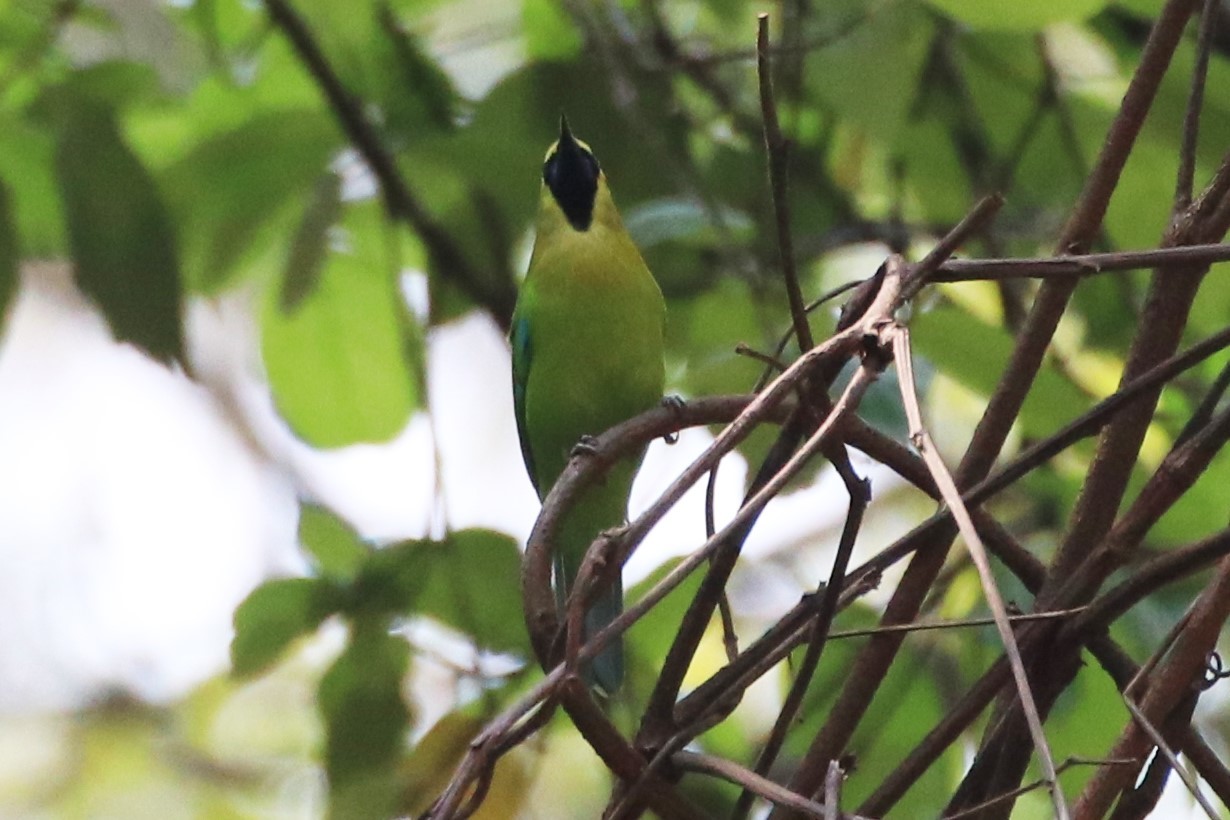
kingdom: Animalia
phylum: Chordata
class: Aves
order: Passeriformes
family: Chloropseidae
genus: Chloropsis
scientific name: Chloropsis moluccensis
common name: Blue-winged leafbird
